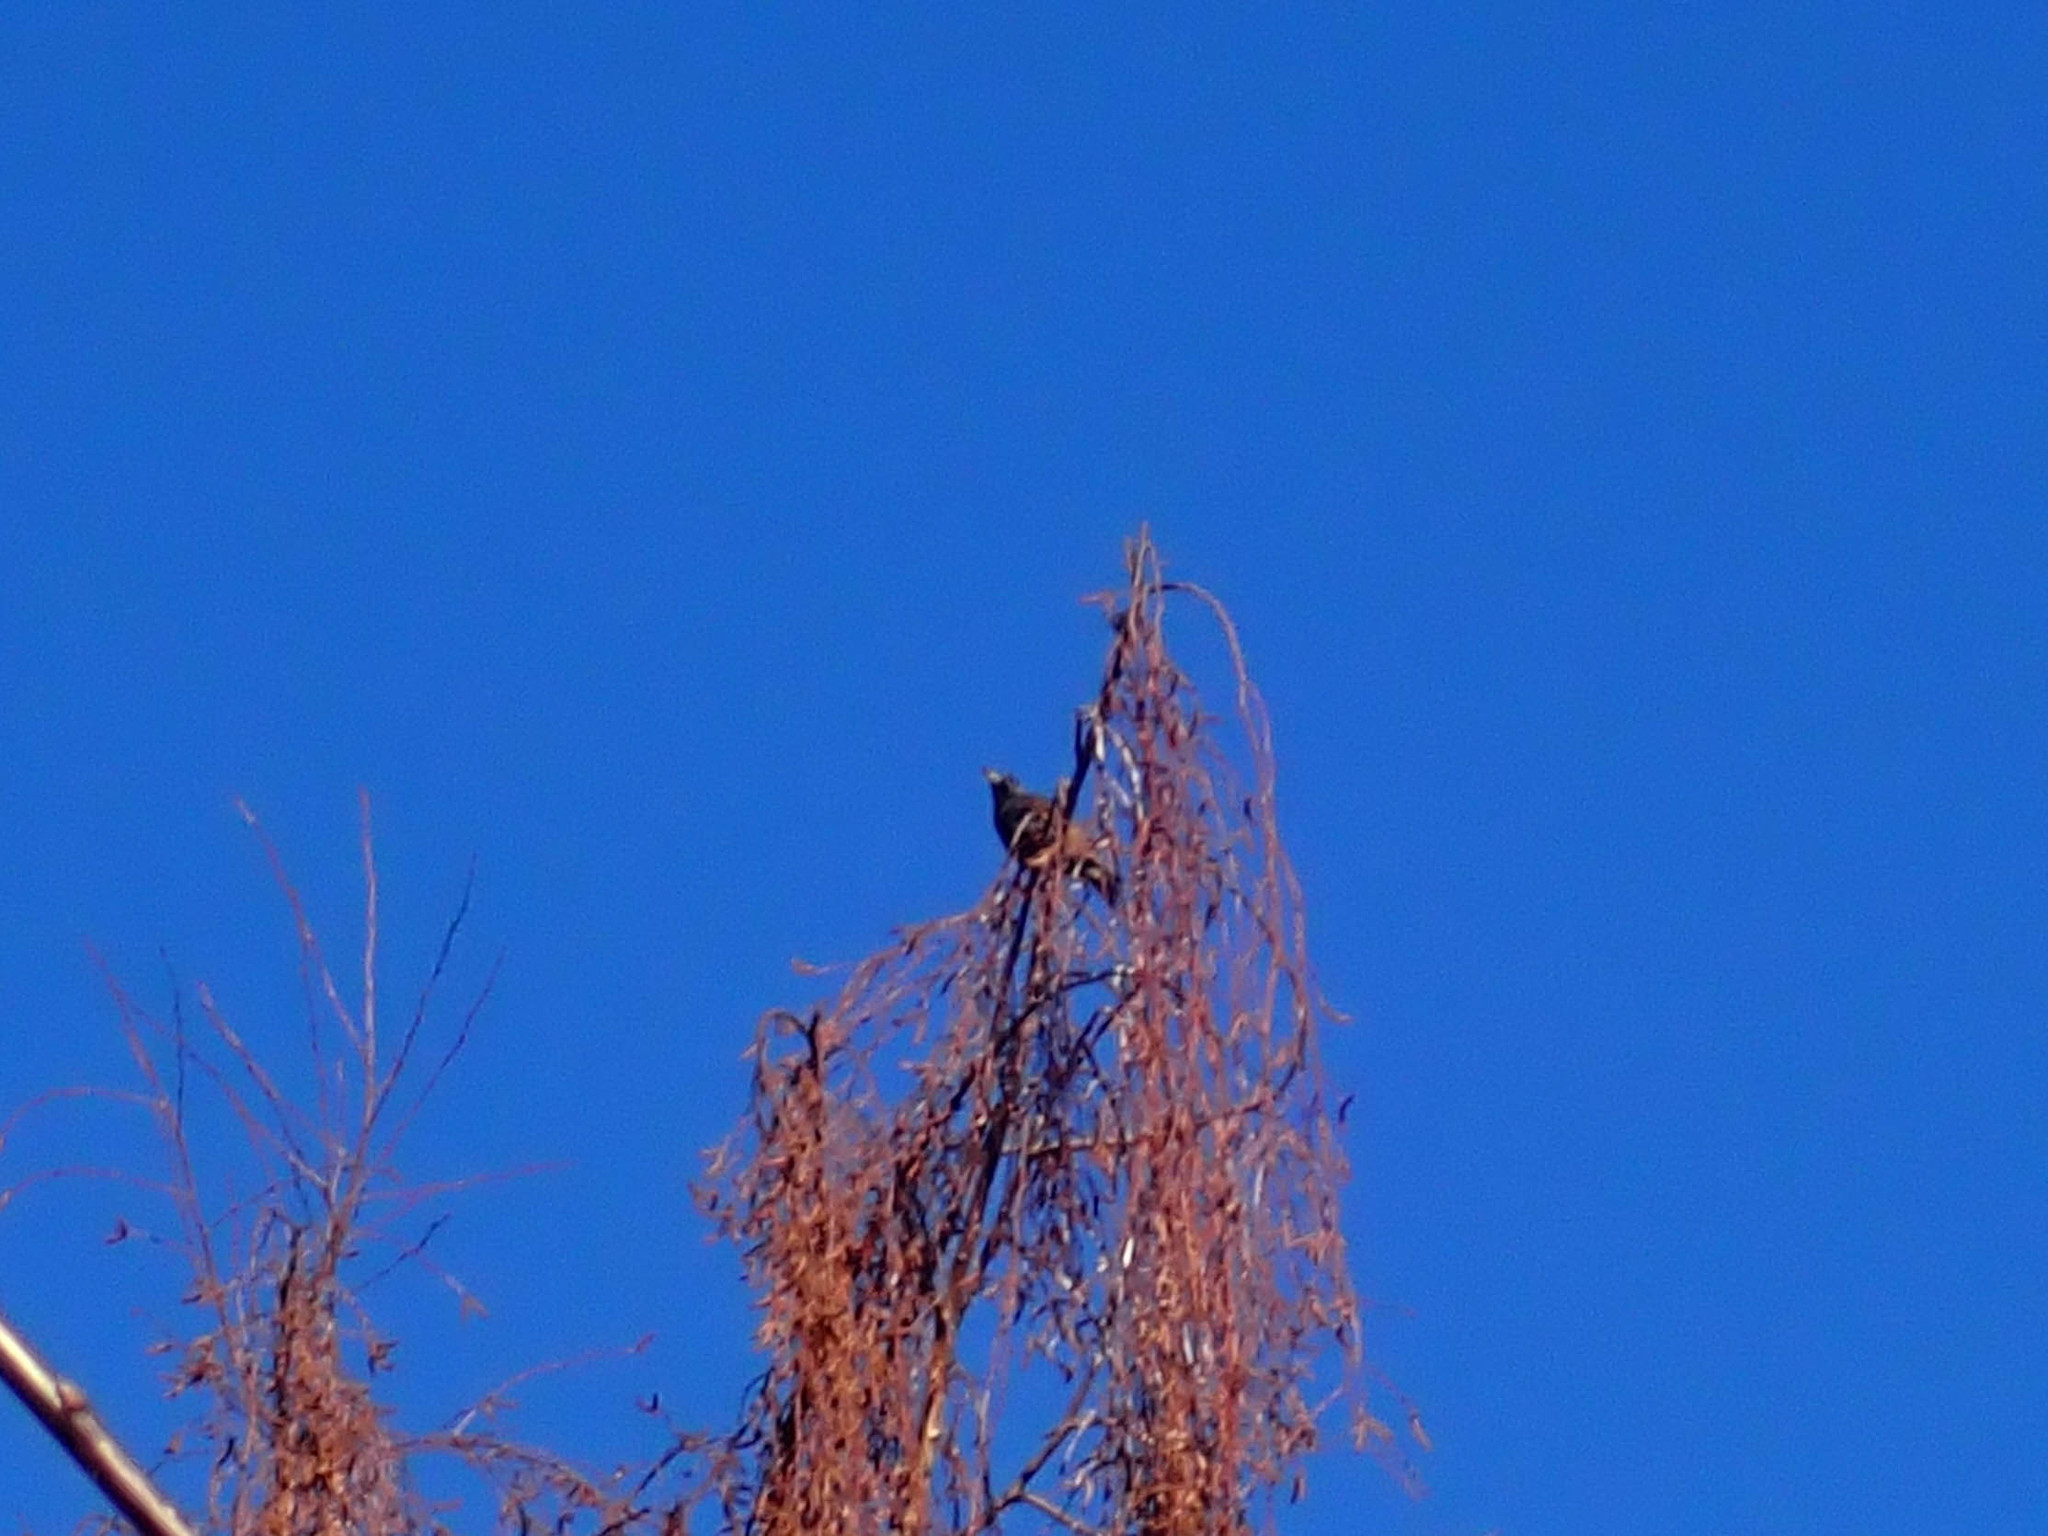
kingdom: Animalia
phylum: Chordata
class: Aves
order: Passeriformes
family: Sturnidae
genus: Sturnus
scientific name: Sturnus vulgaris
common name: Common starling
